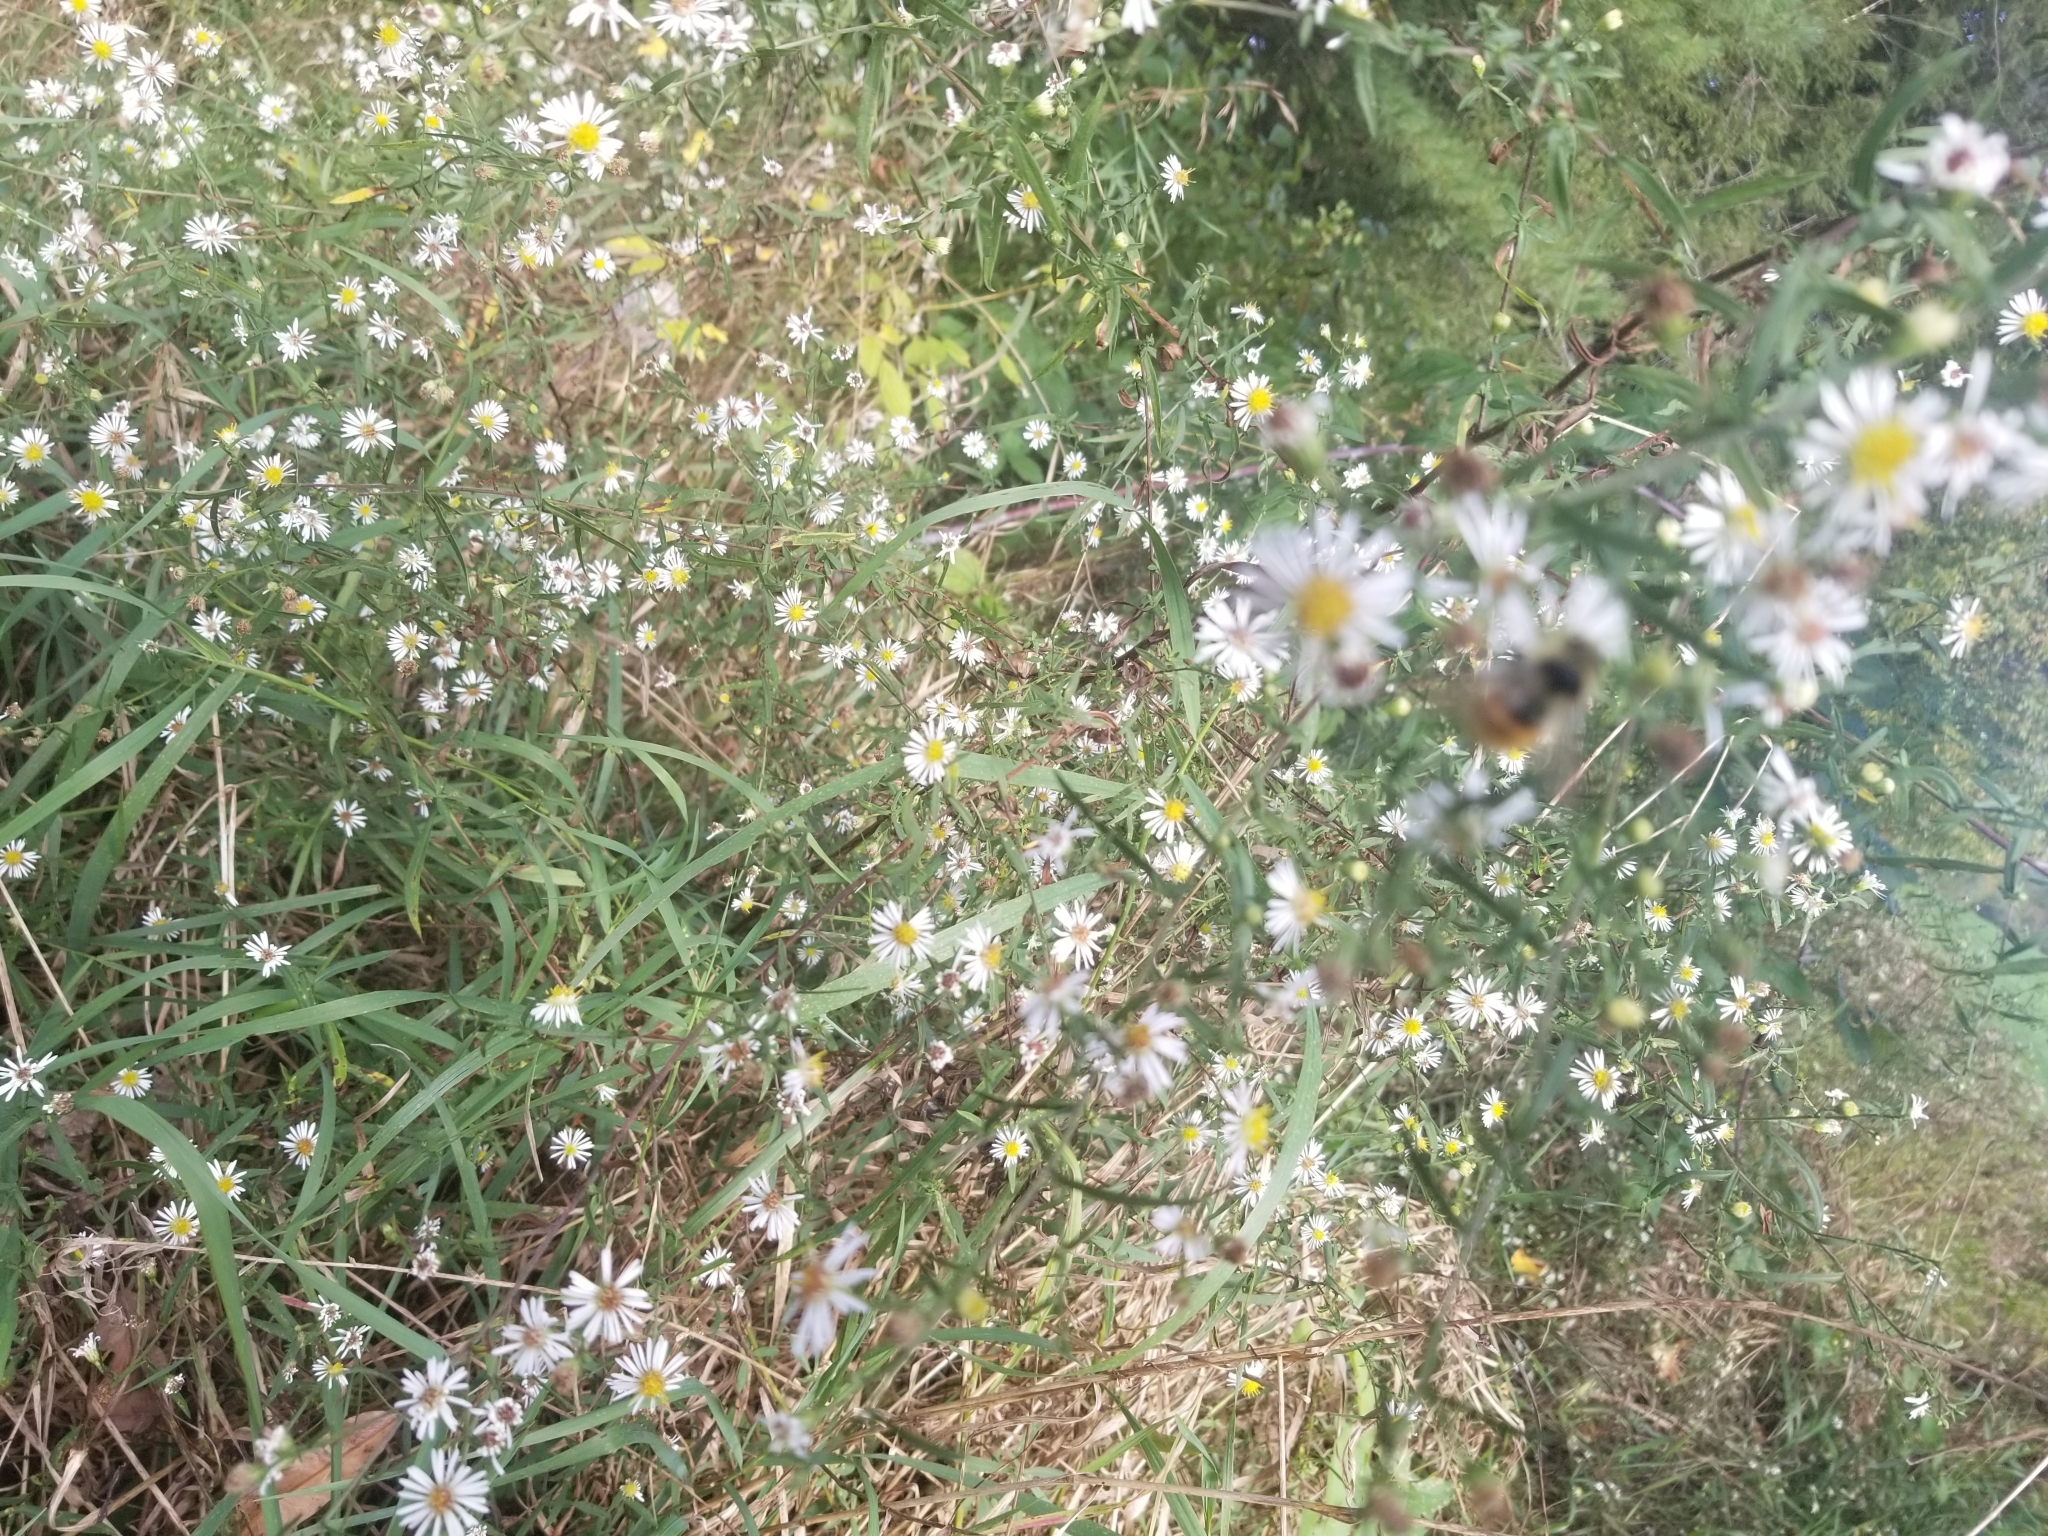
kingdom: Animalia
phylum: Arthropoda
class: Insecta
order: Hymenoptera
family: Apidae
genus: Bombus
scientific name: Bombus ternarius
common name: Tri-colored bumble bee
